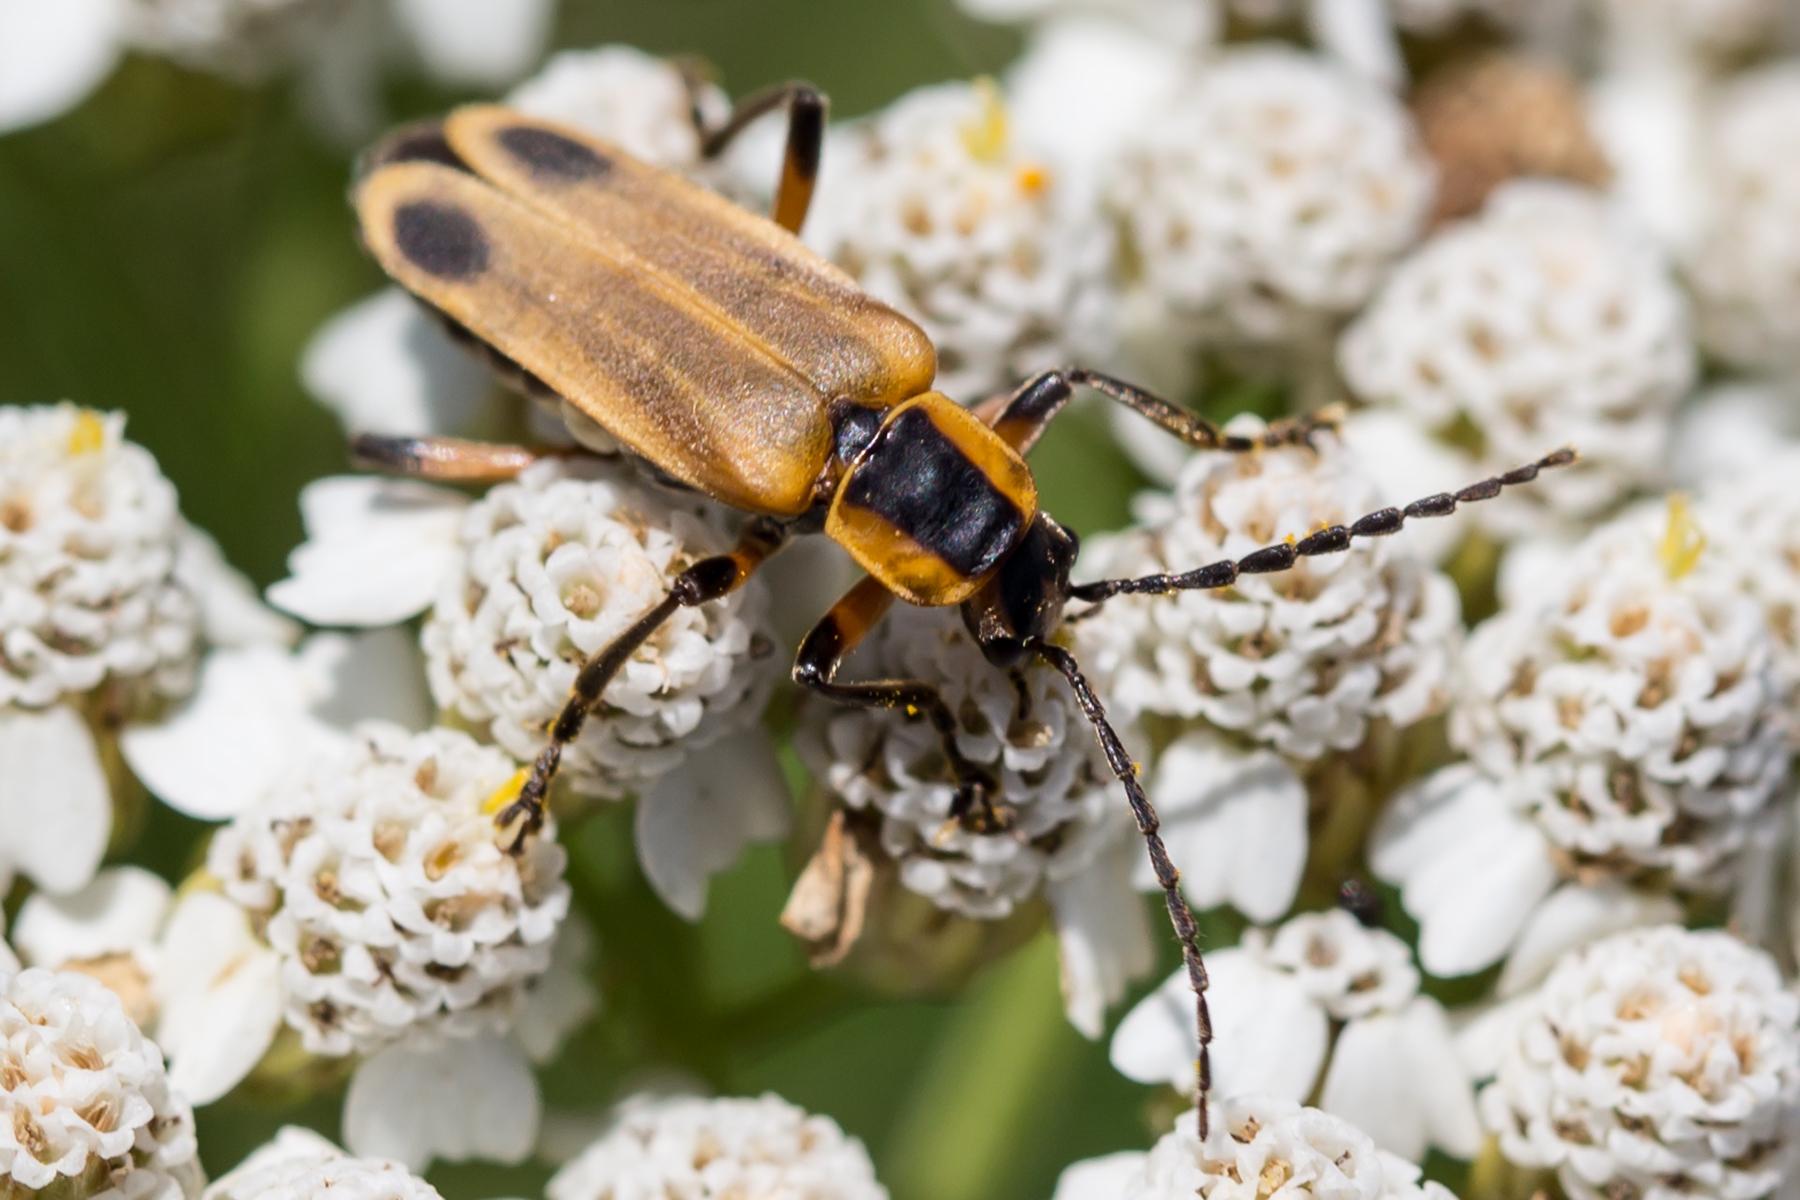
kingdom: Animalia
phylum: Arthropoda
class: Insecta
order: Coleoptera
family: Cantharidae
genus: Chauliognathus
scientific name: Chauliognathus marginatus
